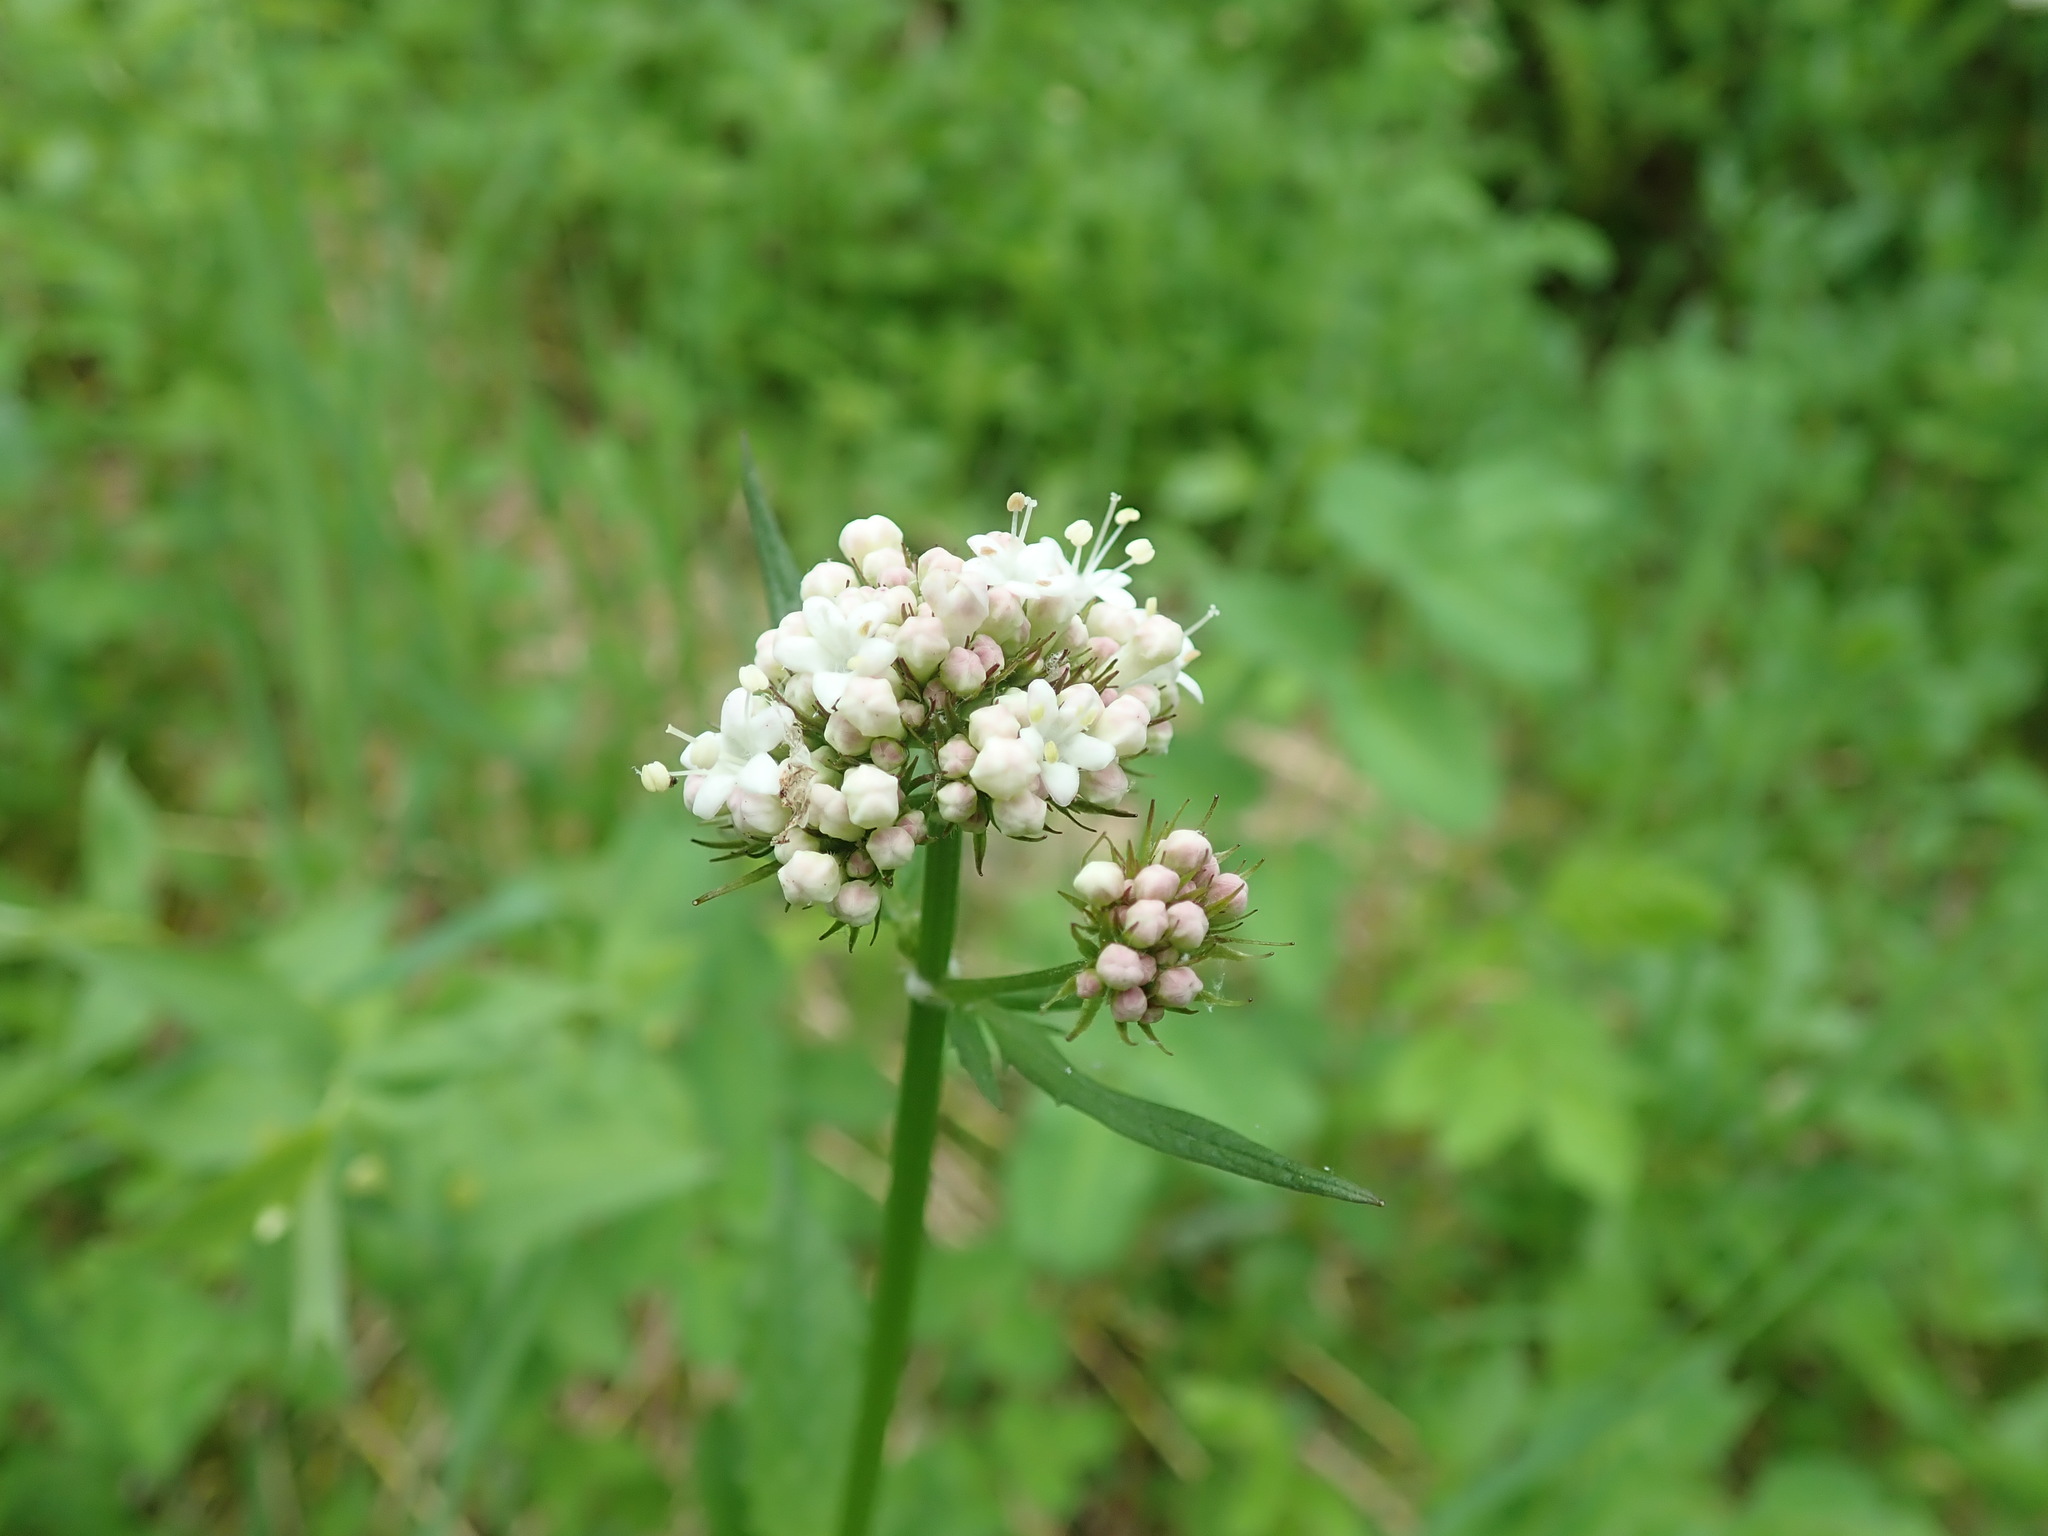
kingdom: Plantae
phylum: Tracheophyta
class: Magnoliopsida
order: Dipsacales
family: Caprifoliaceae
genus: Valeriana
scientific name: Valeriana sitchensis
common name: Pacific valerian
